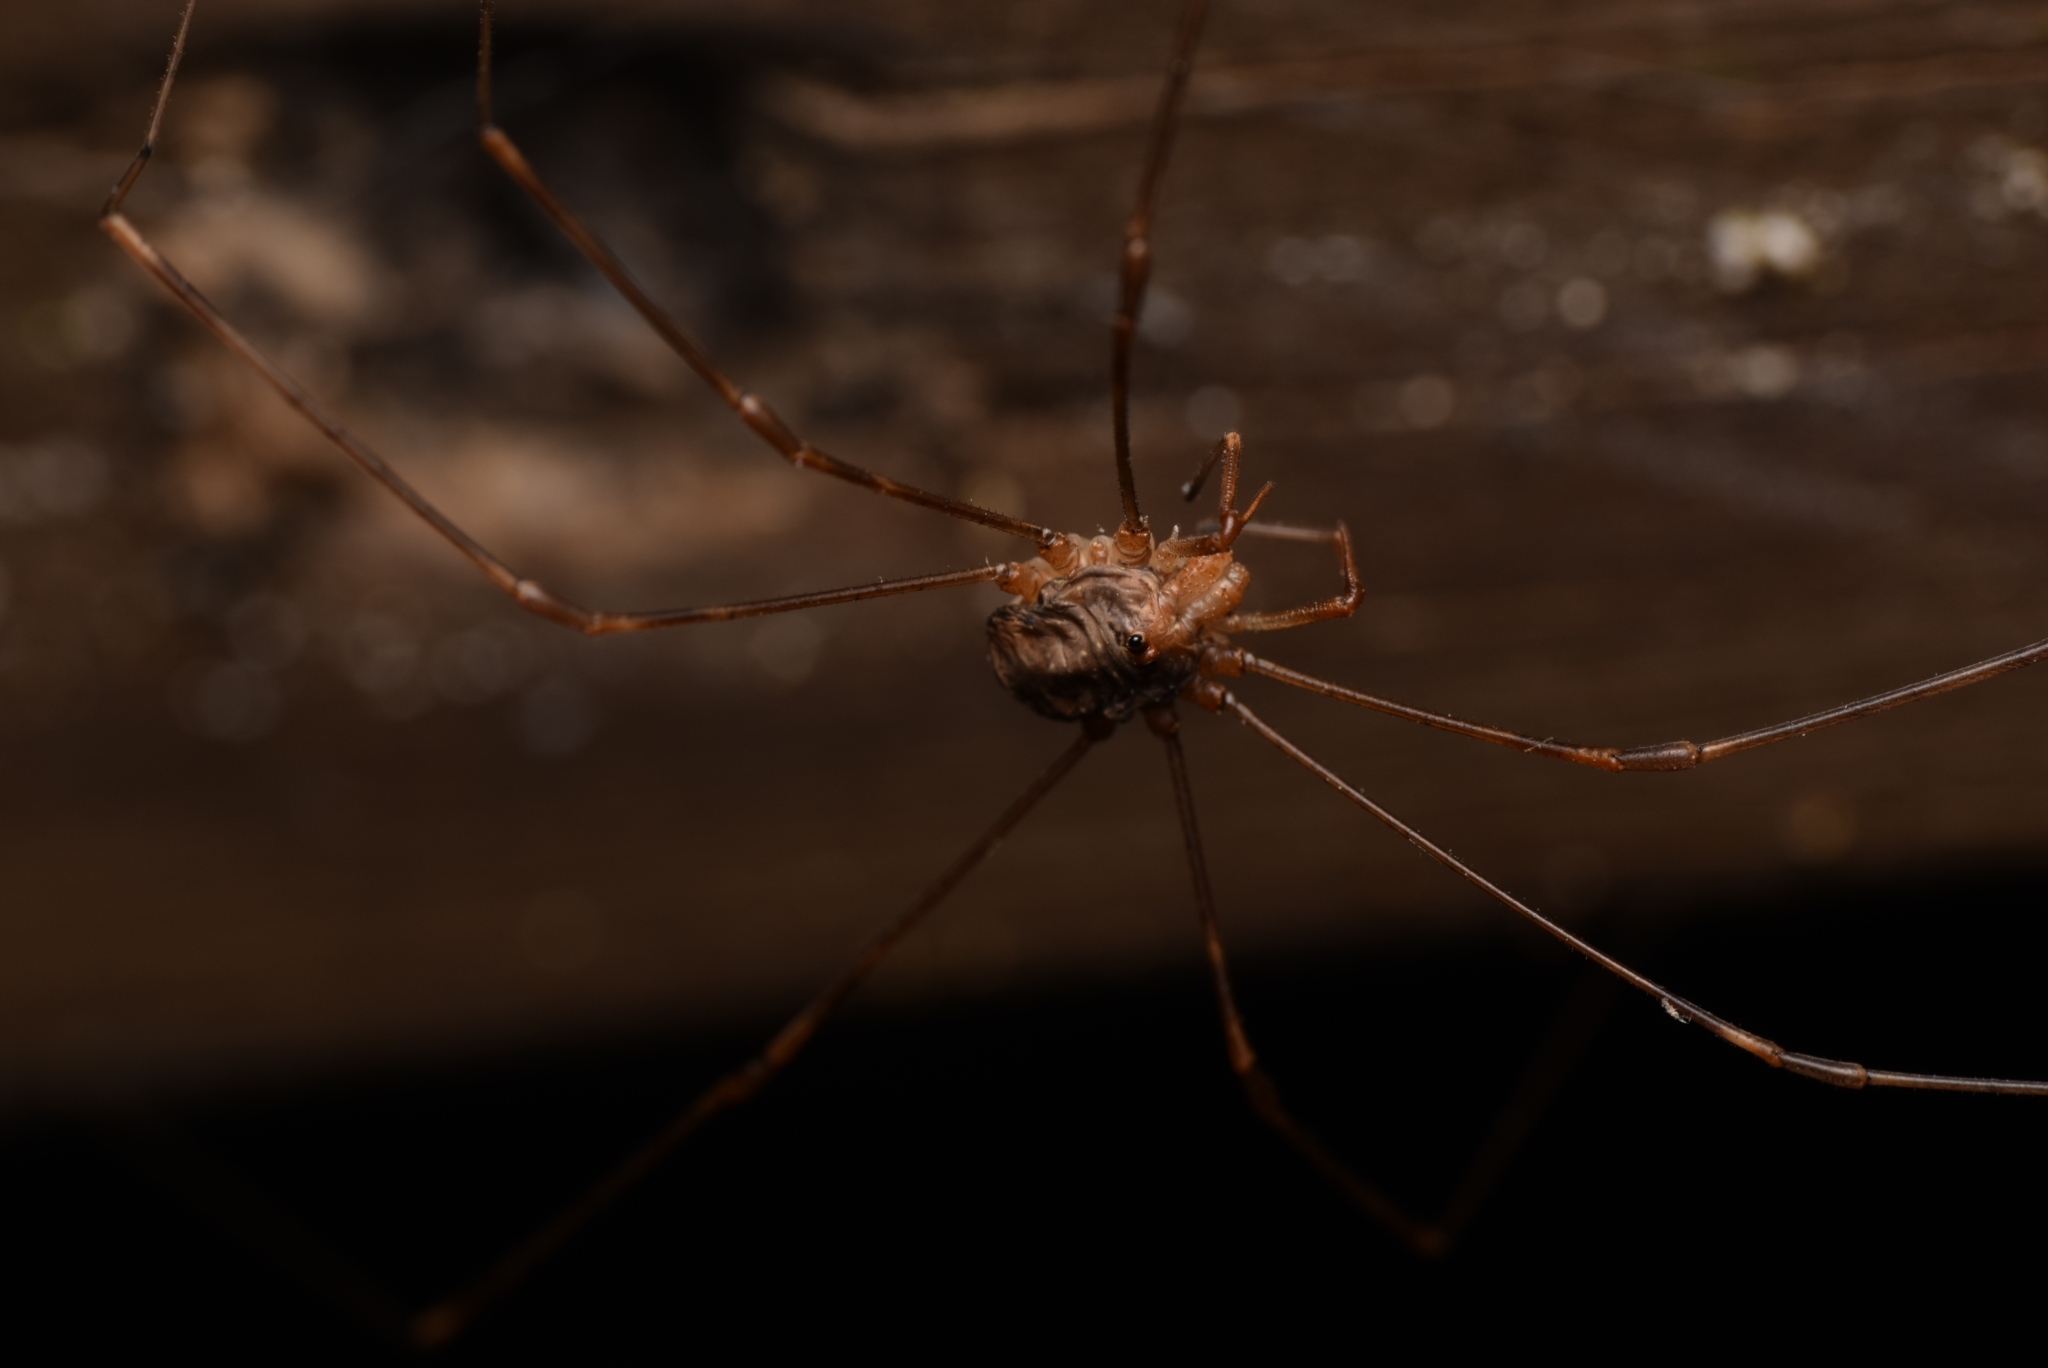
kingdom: Animalia
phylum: Arthropoda
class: Arachnida
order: Opiliones
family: Phalangiidae
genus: Dicranopalpus
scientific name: Dicranopalpus ramosus
